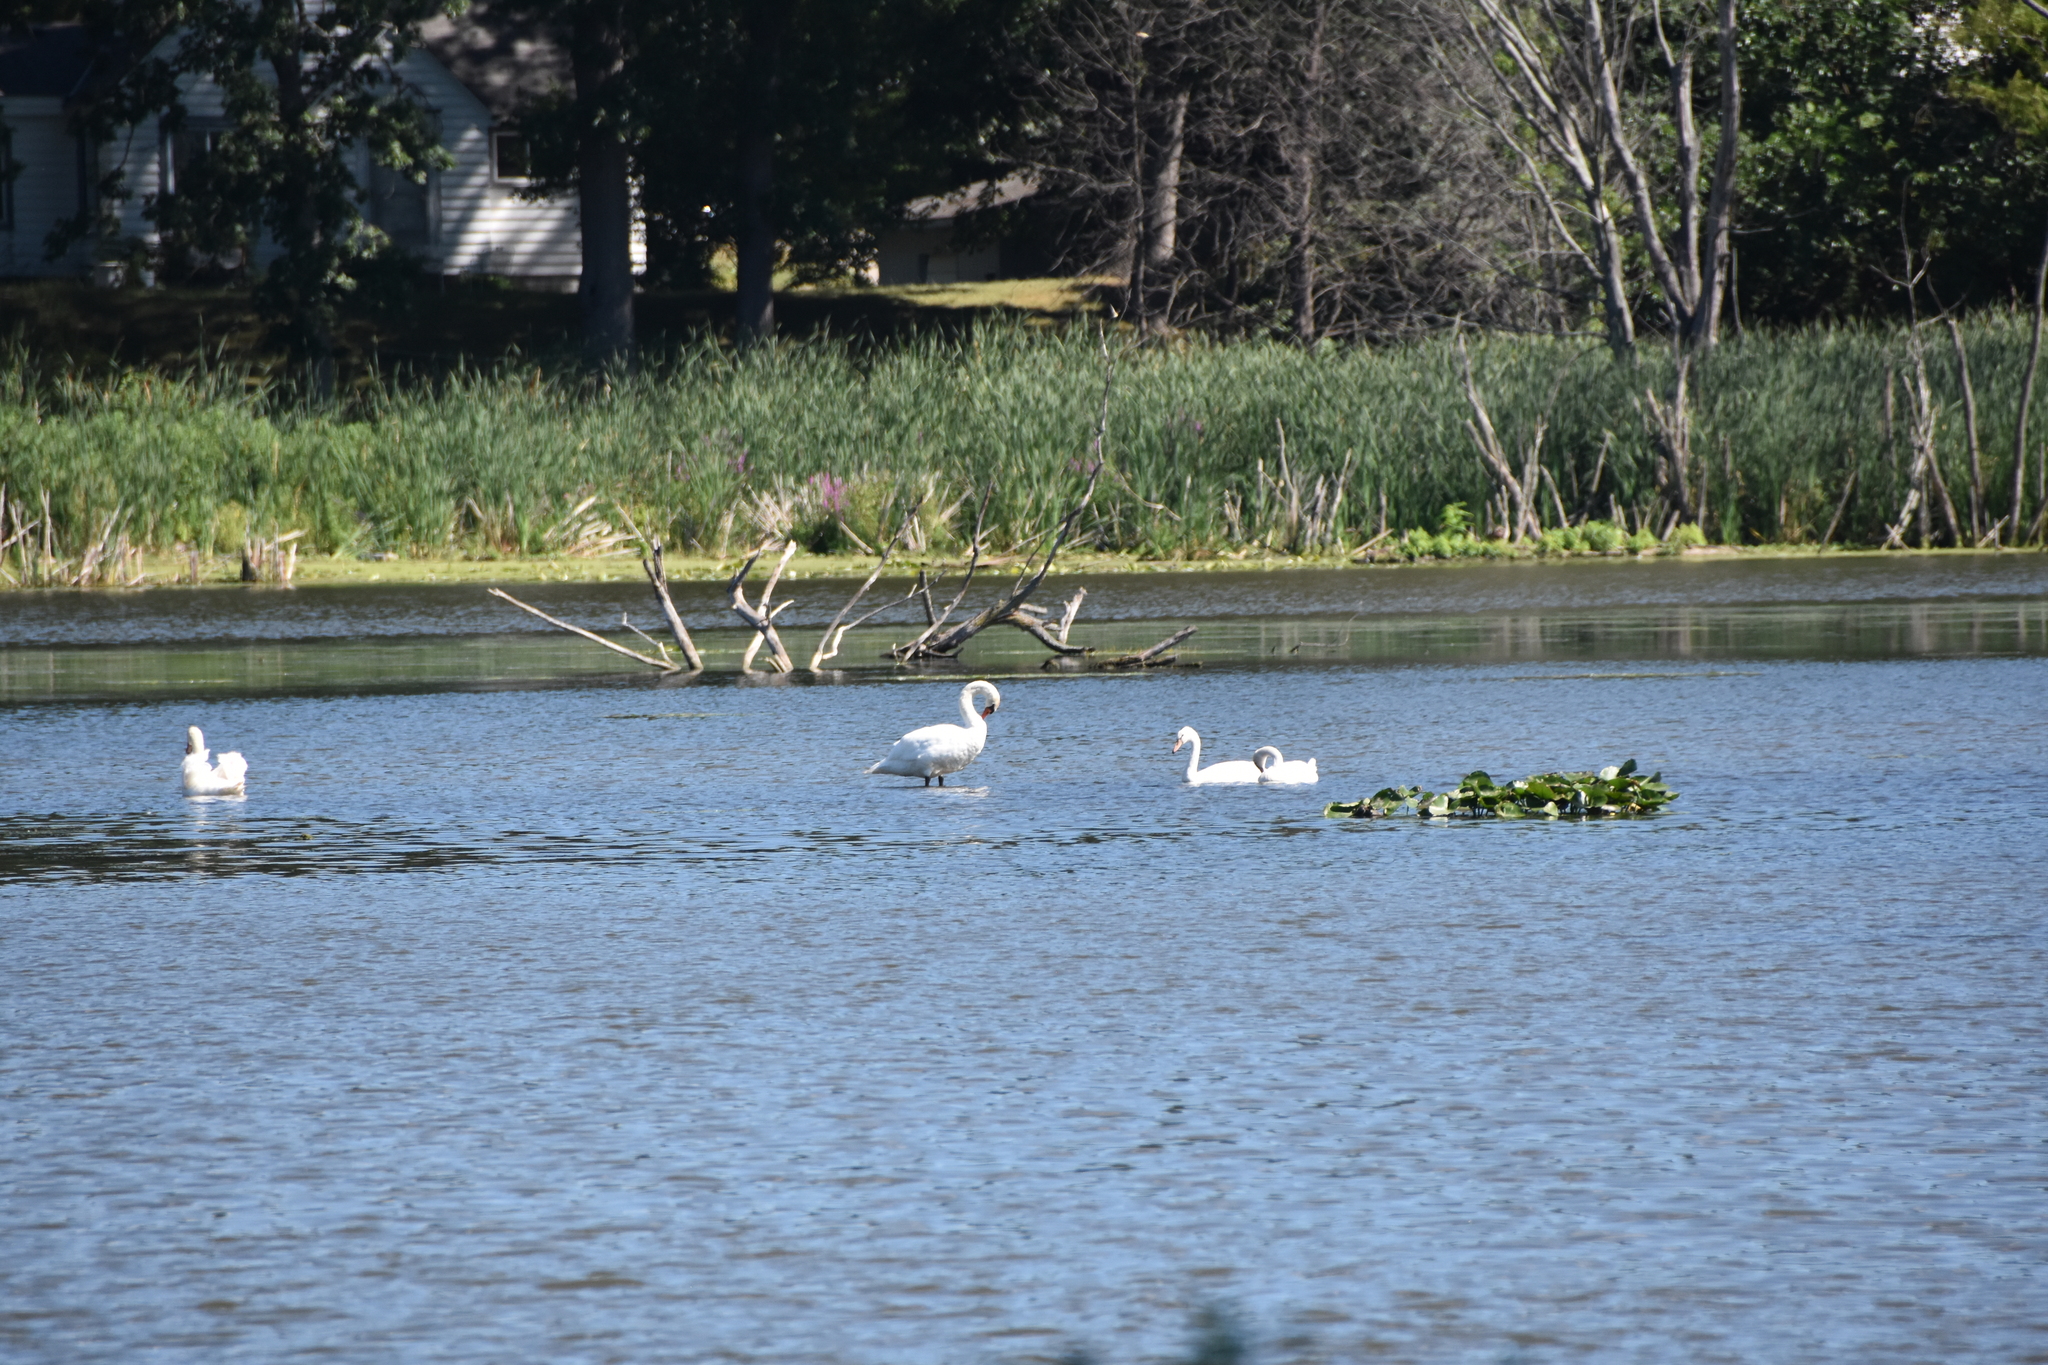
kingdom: Animalia
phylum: Chordata
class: Aves
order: Anseriformes
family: Anatidae
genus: Cygnus
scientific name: Cygnus olor
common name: Mute swan
